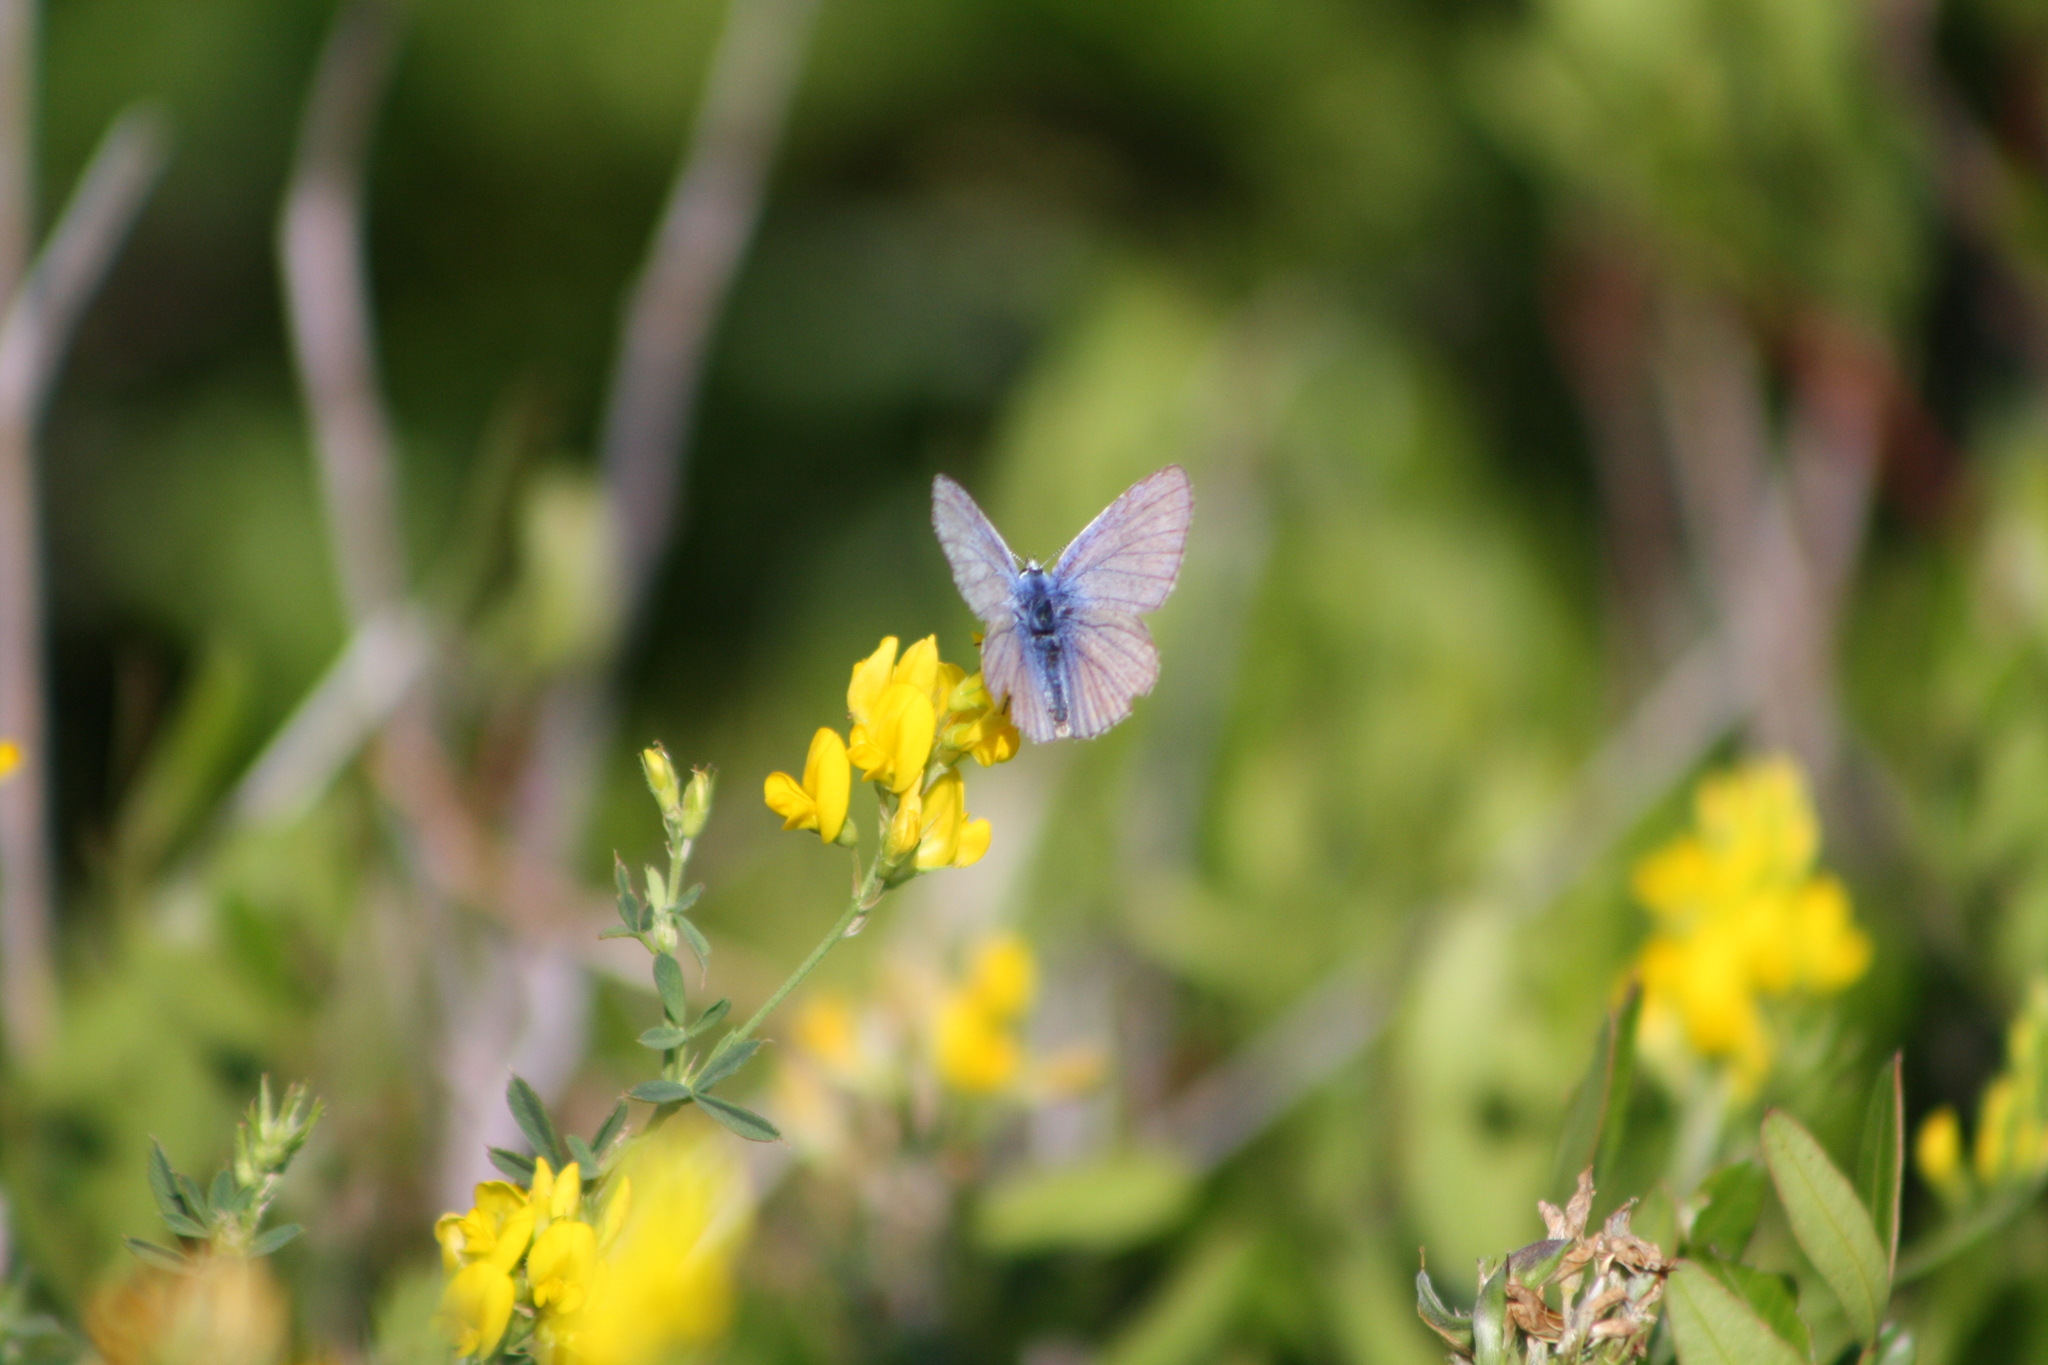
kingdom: Animalia
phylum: Arthropoda
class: Insecta
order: Lepidoptera
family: Lycaenidae
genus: Polyommatus
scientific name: Polyommatus icarus
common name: Common blue
